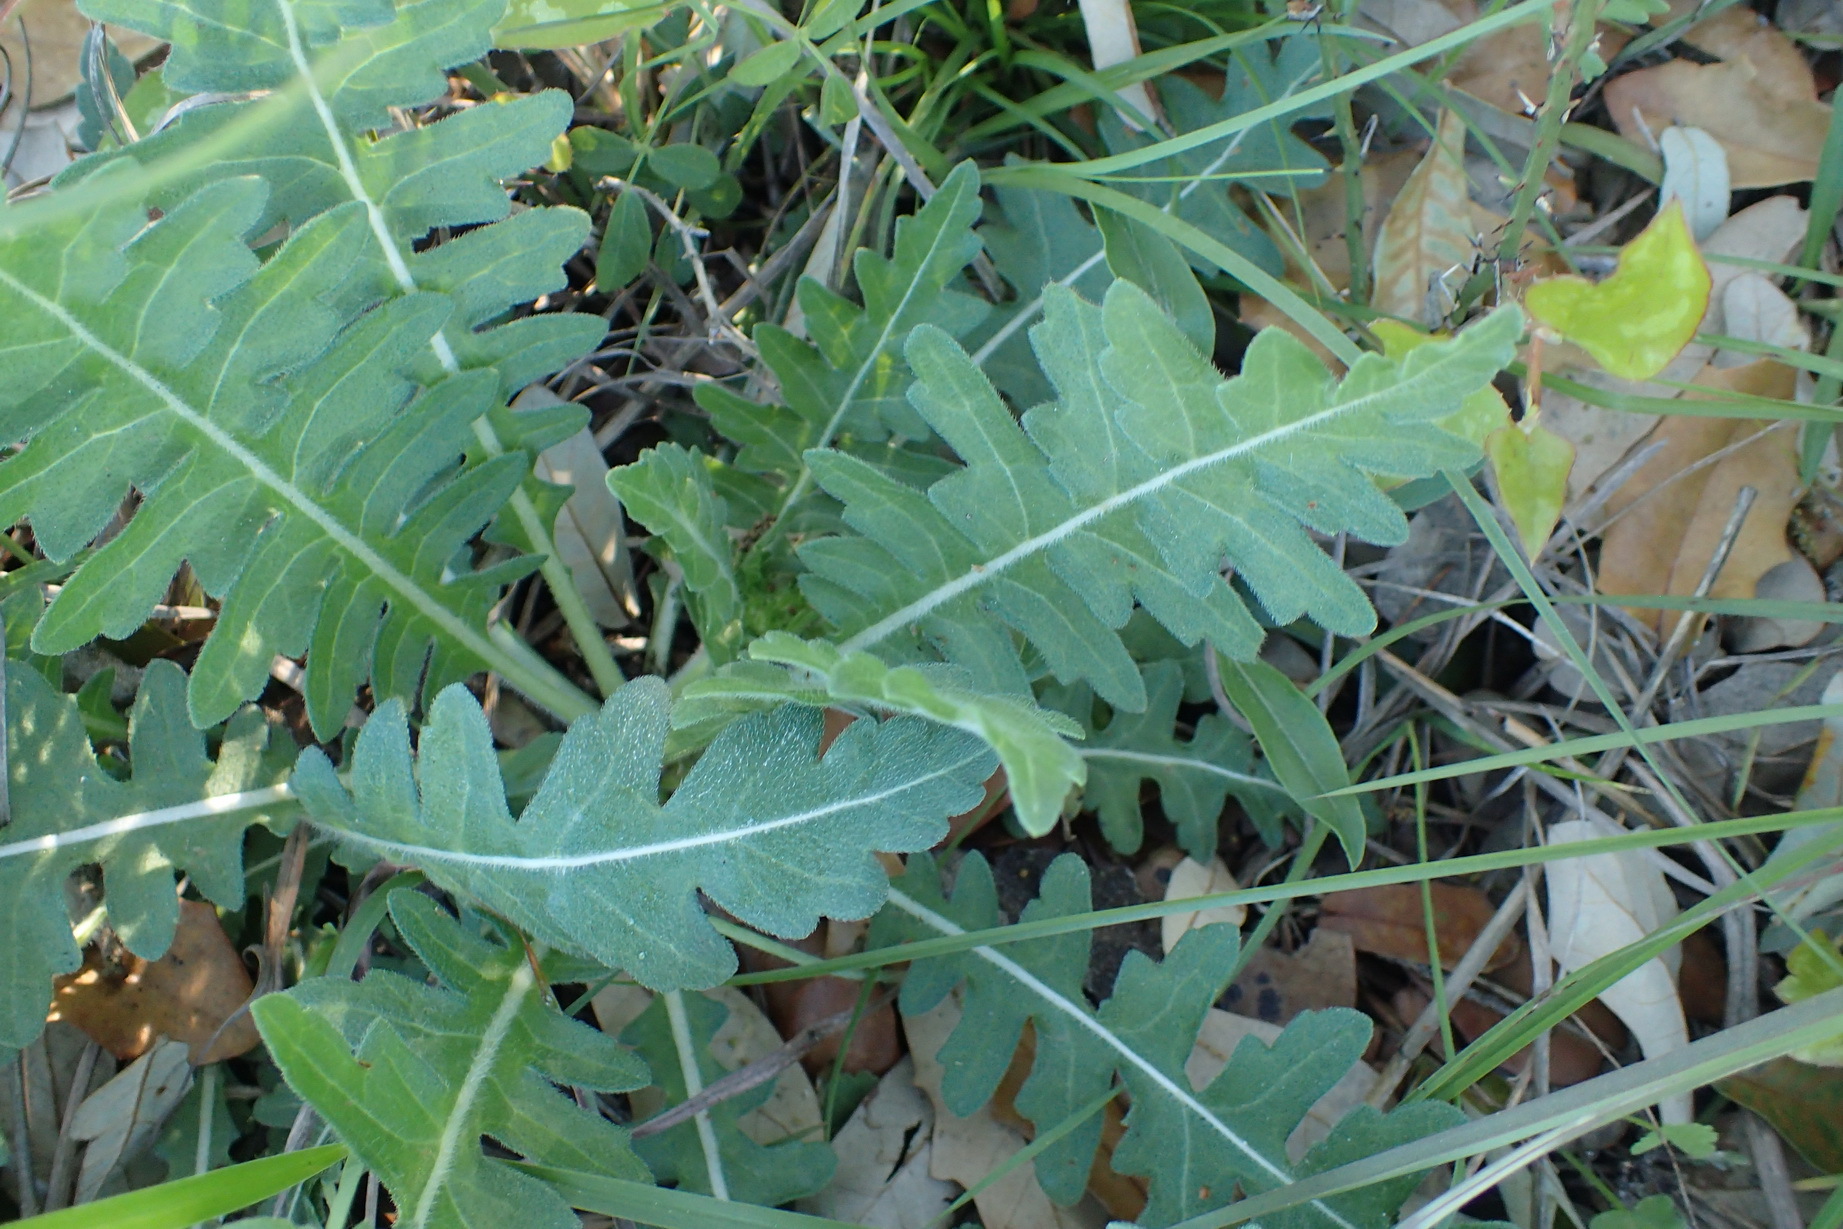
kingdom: Plantae
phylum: Tracheophyta
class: Magnoliopsida
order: Asterales
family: Asteraceae
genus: Engelmannia
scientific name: Engelmannia peristenia
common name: Engelmann's daisy
